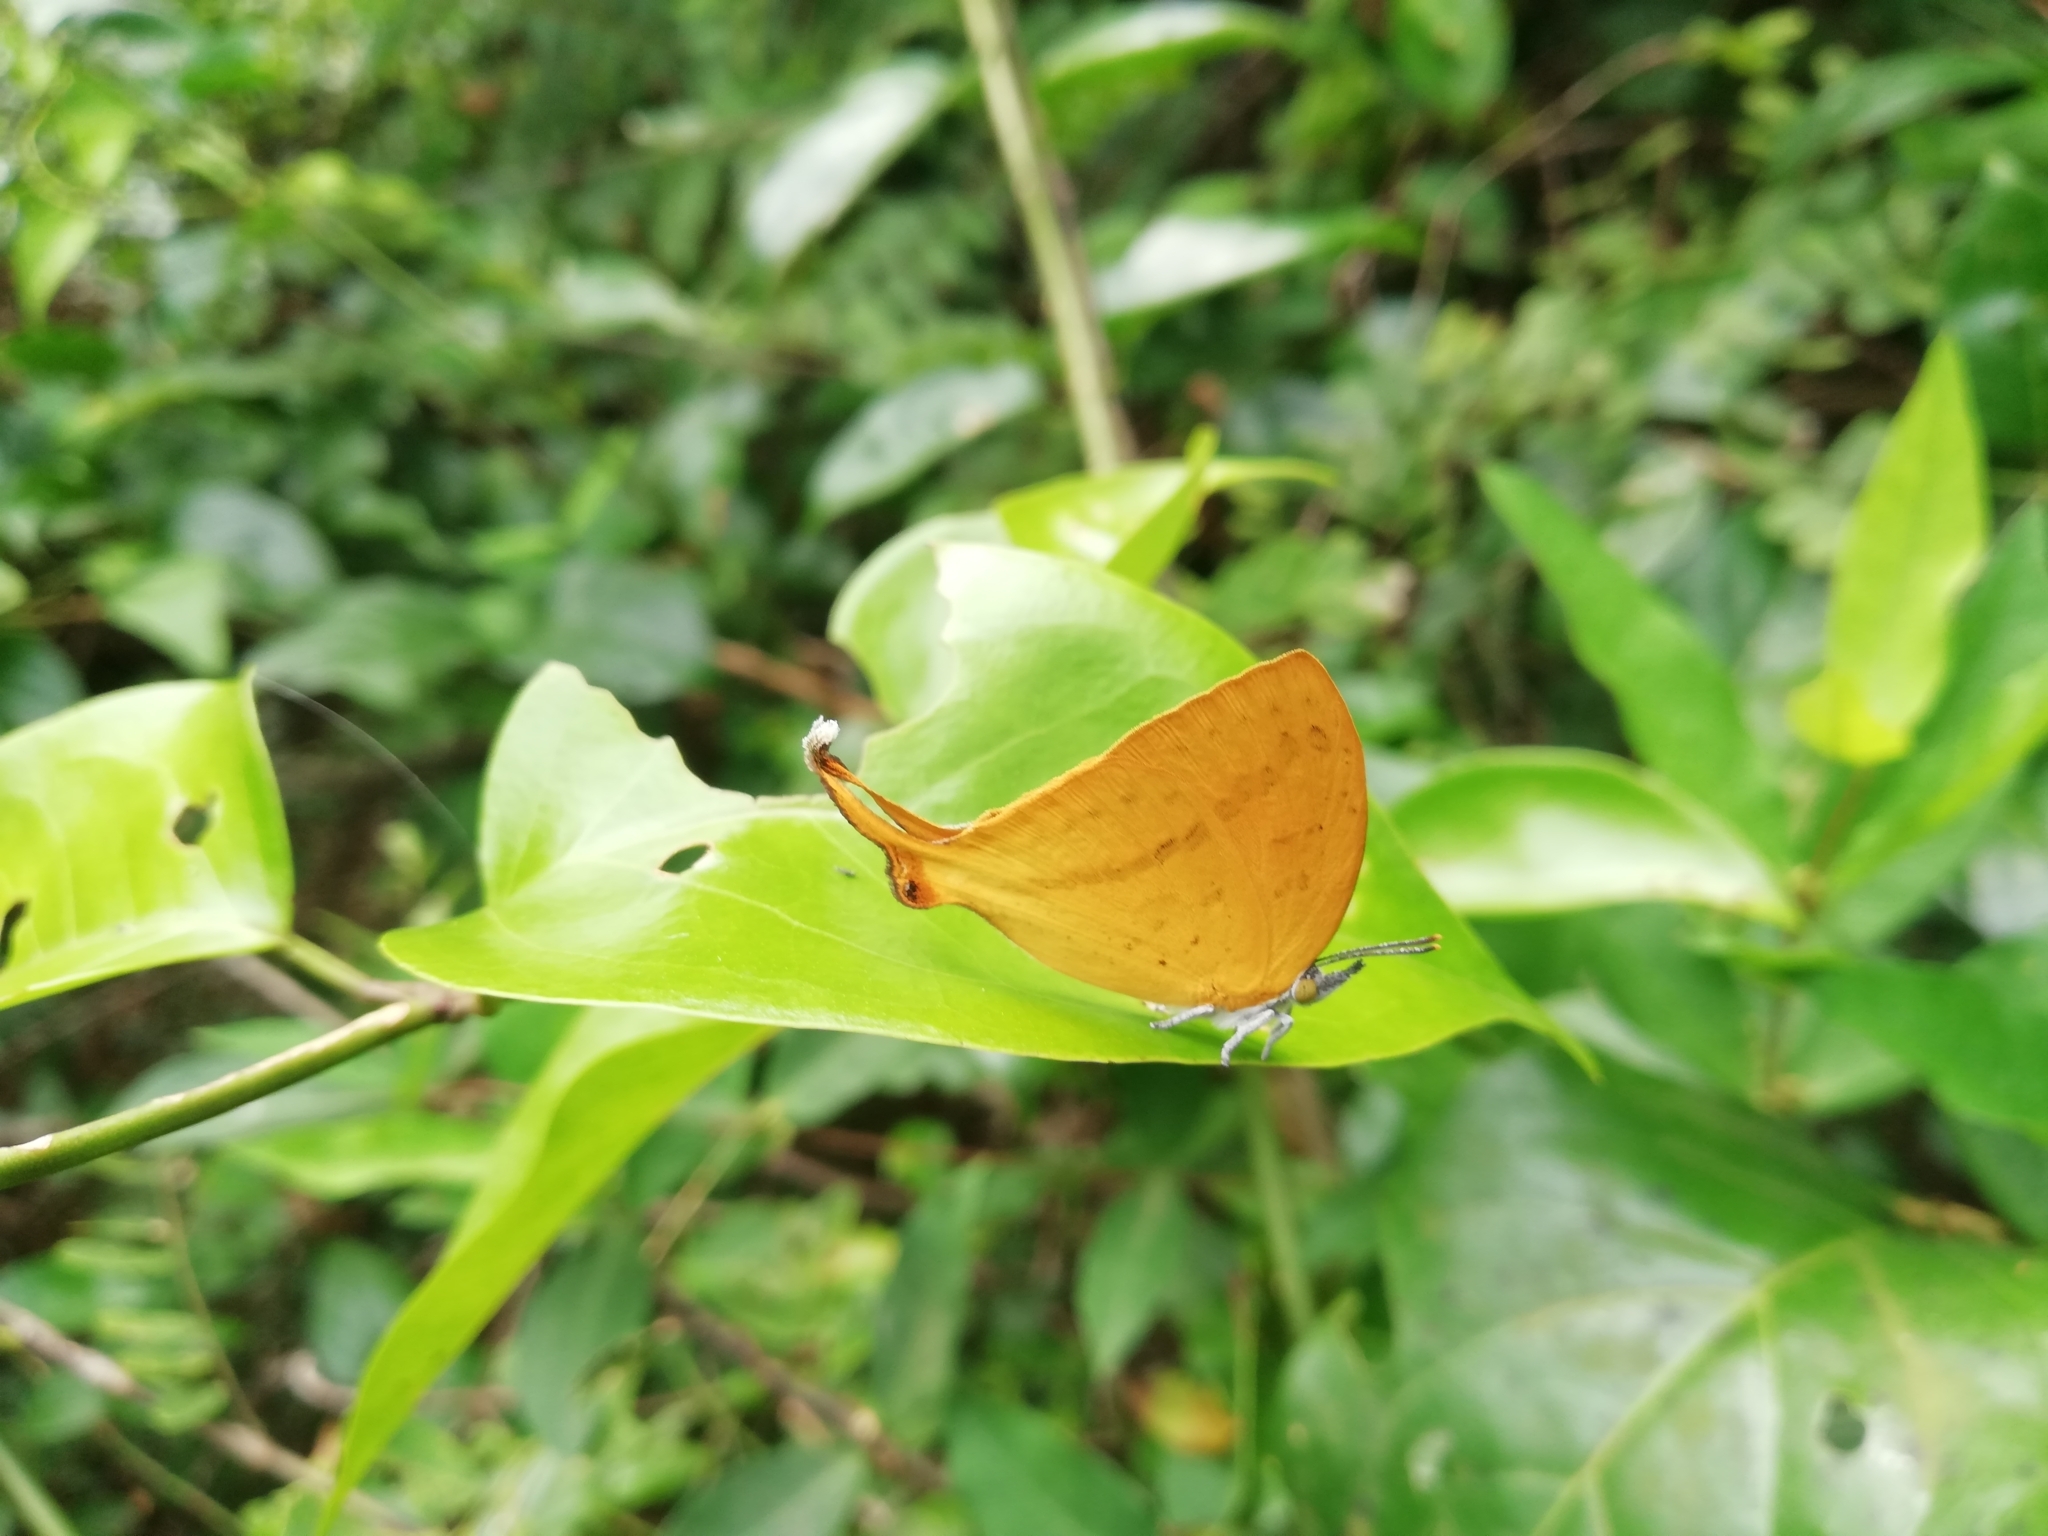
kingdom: Animalia
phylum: Arthropoda
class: Insecta
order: Lepidoptera
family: Lycaenidae
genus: Loxura
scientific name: Loxura atymnus
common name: Common yamfly
